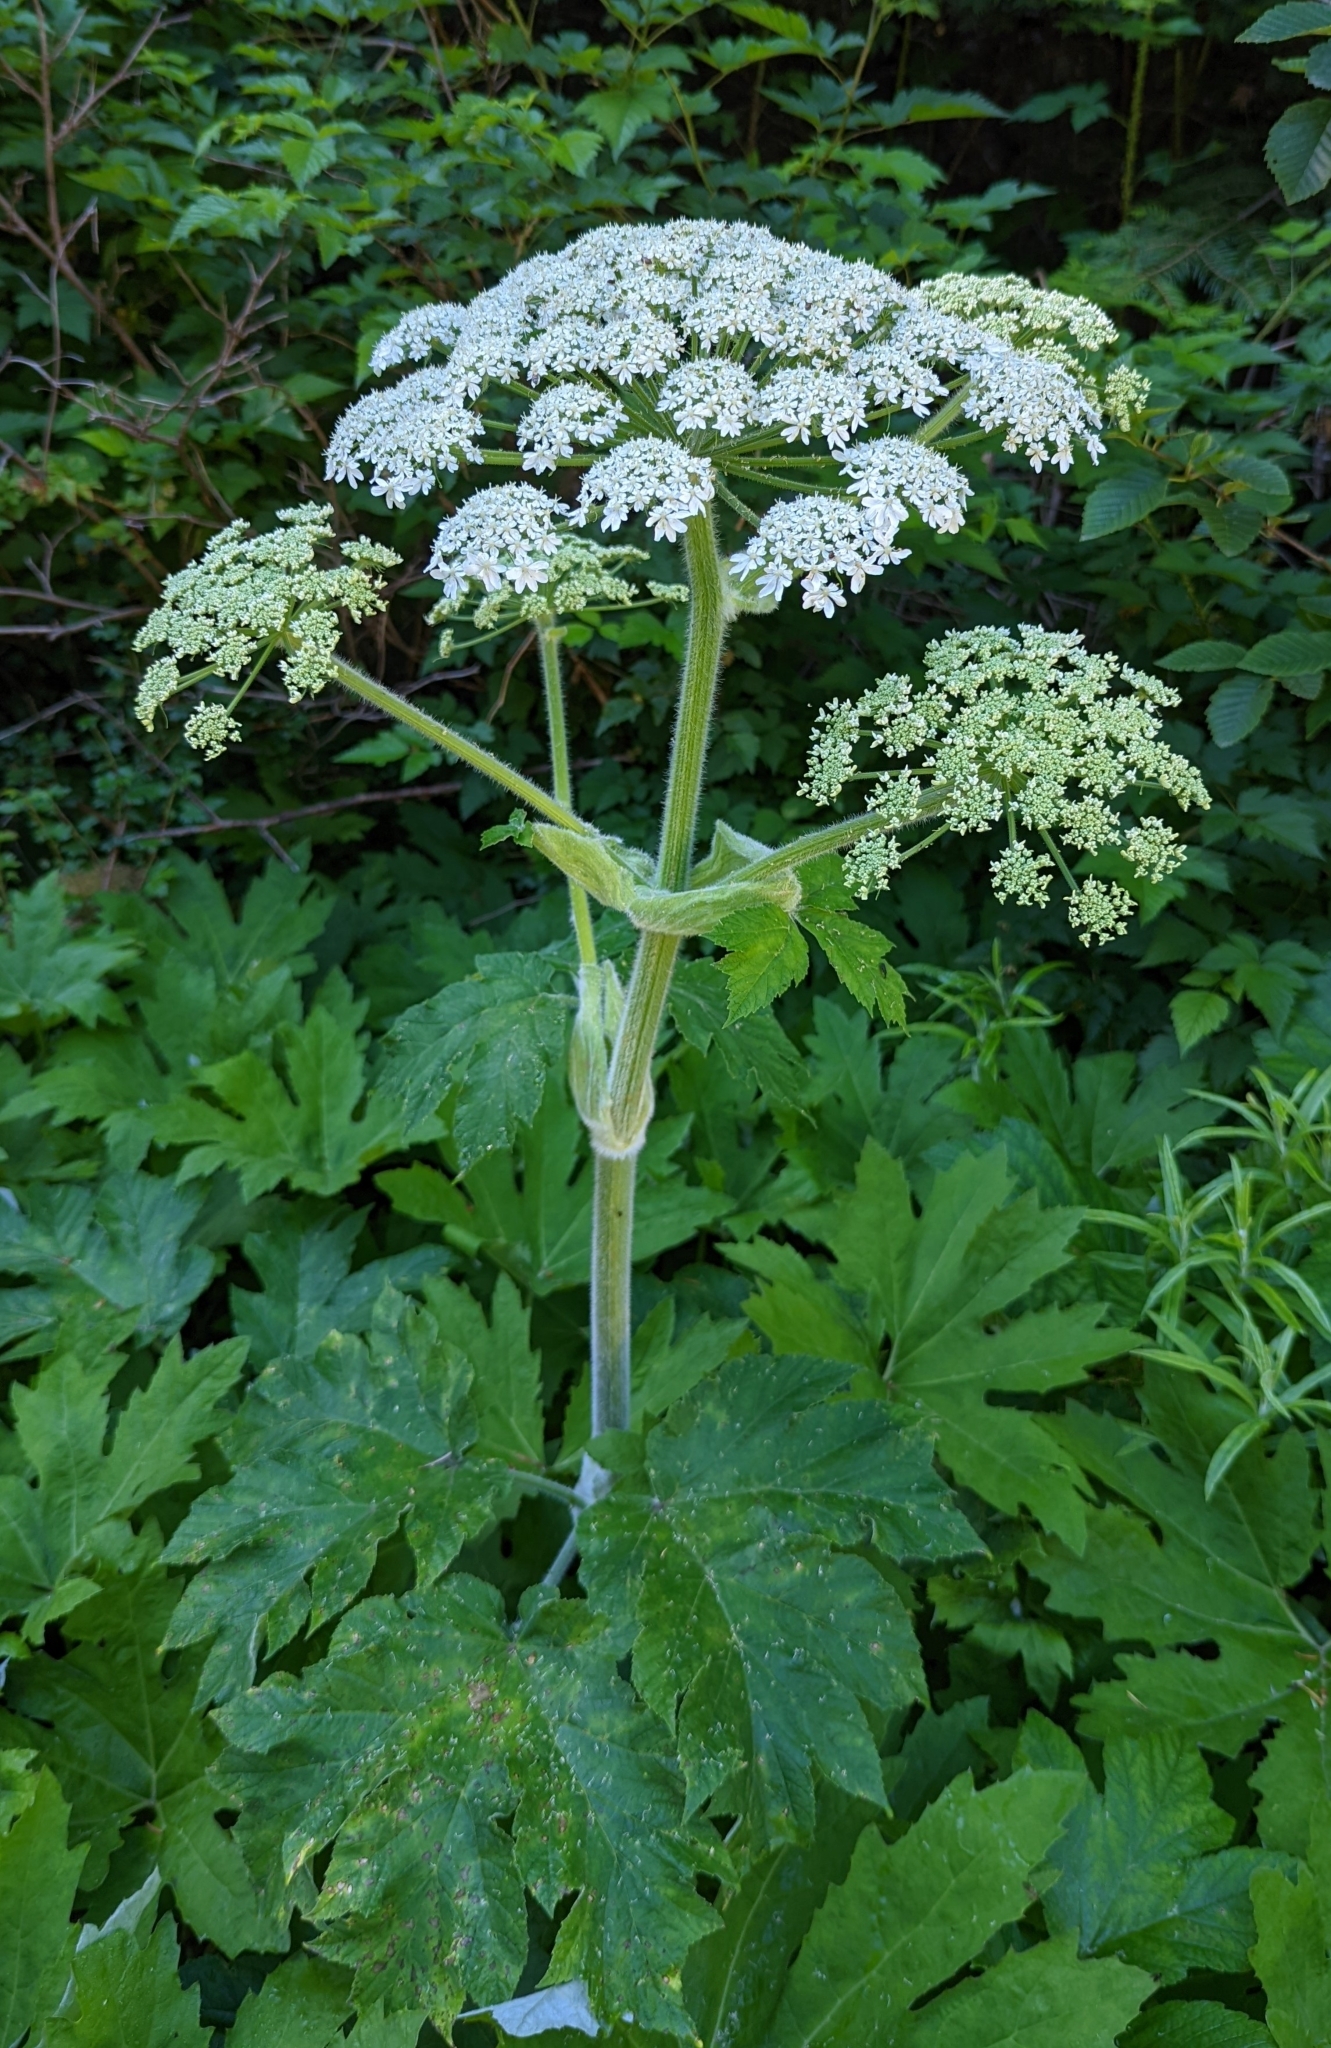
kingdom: Plantae
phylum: Tracheophyta
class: Magnoliopsida
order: Apiales
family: Apiaceae
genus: Heracleum
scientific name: Heracleum maximum
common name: American cow parsnip
